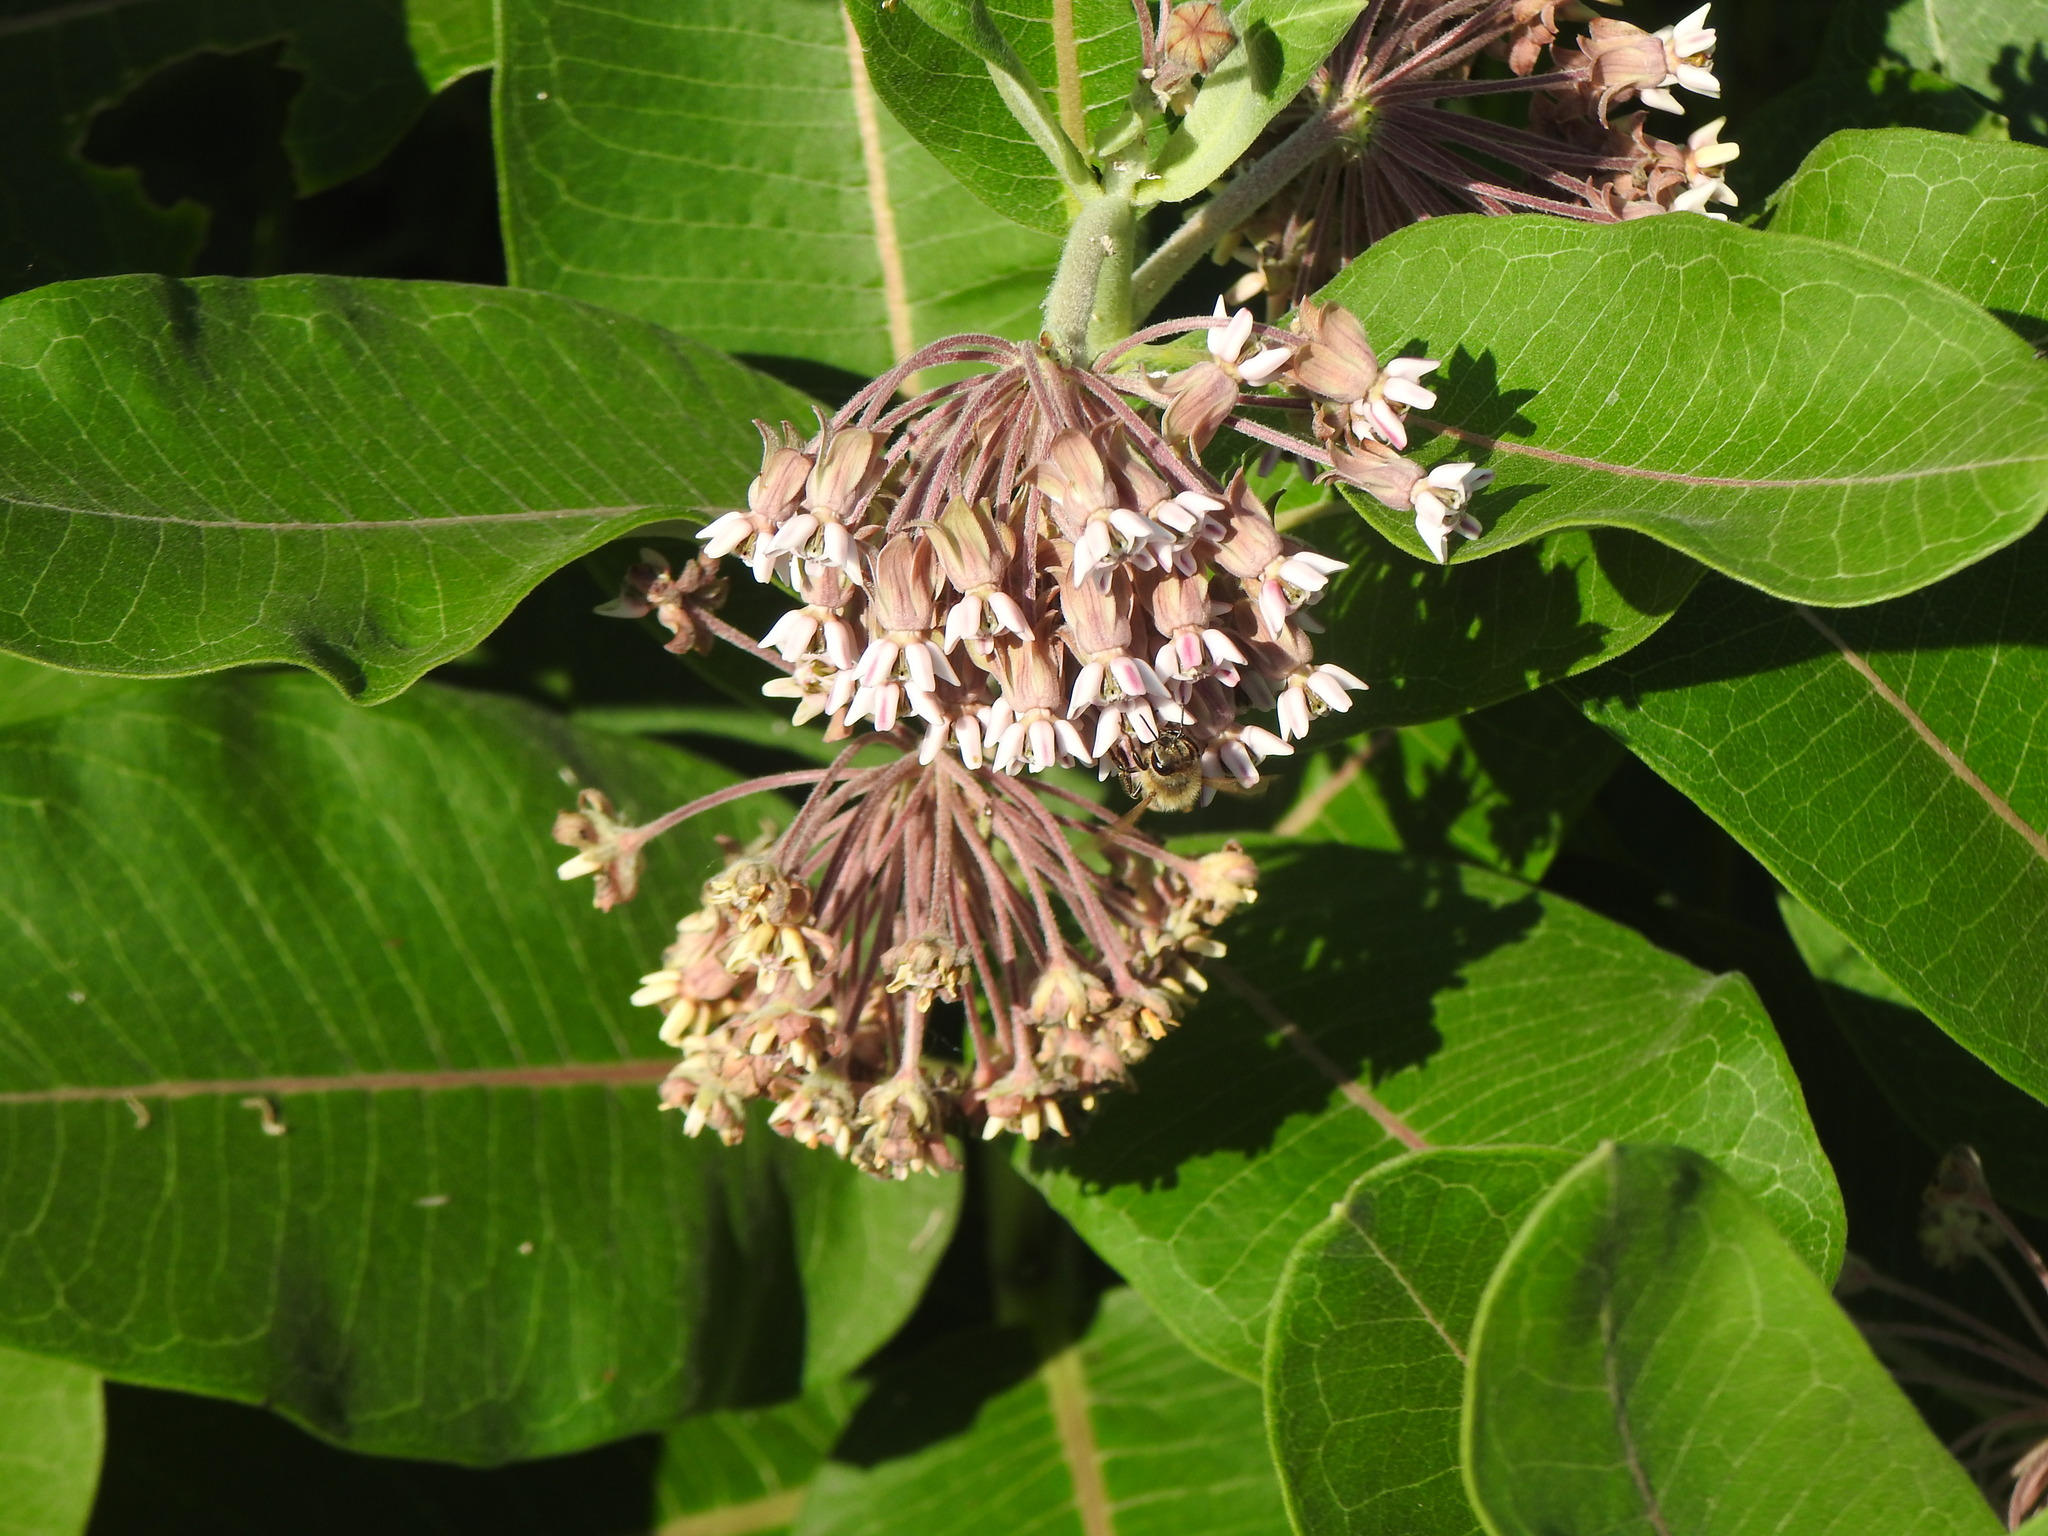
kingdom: Plantae
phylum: Tracheophyta
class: Magnoliopsida
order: Gentianales
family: Apocynaceae
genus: Asclepias
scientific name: Asclepias syriaca
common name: Common milkweed
